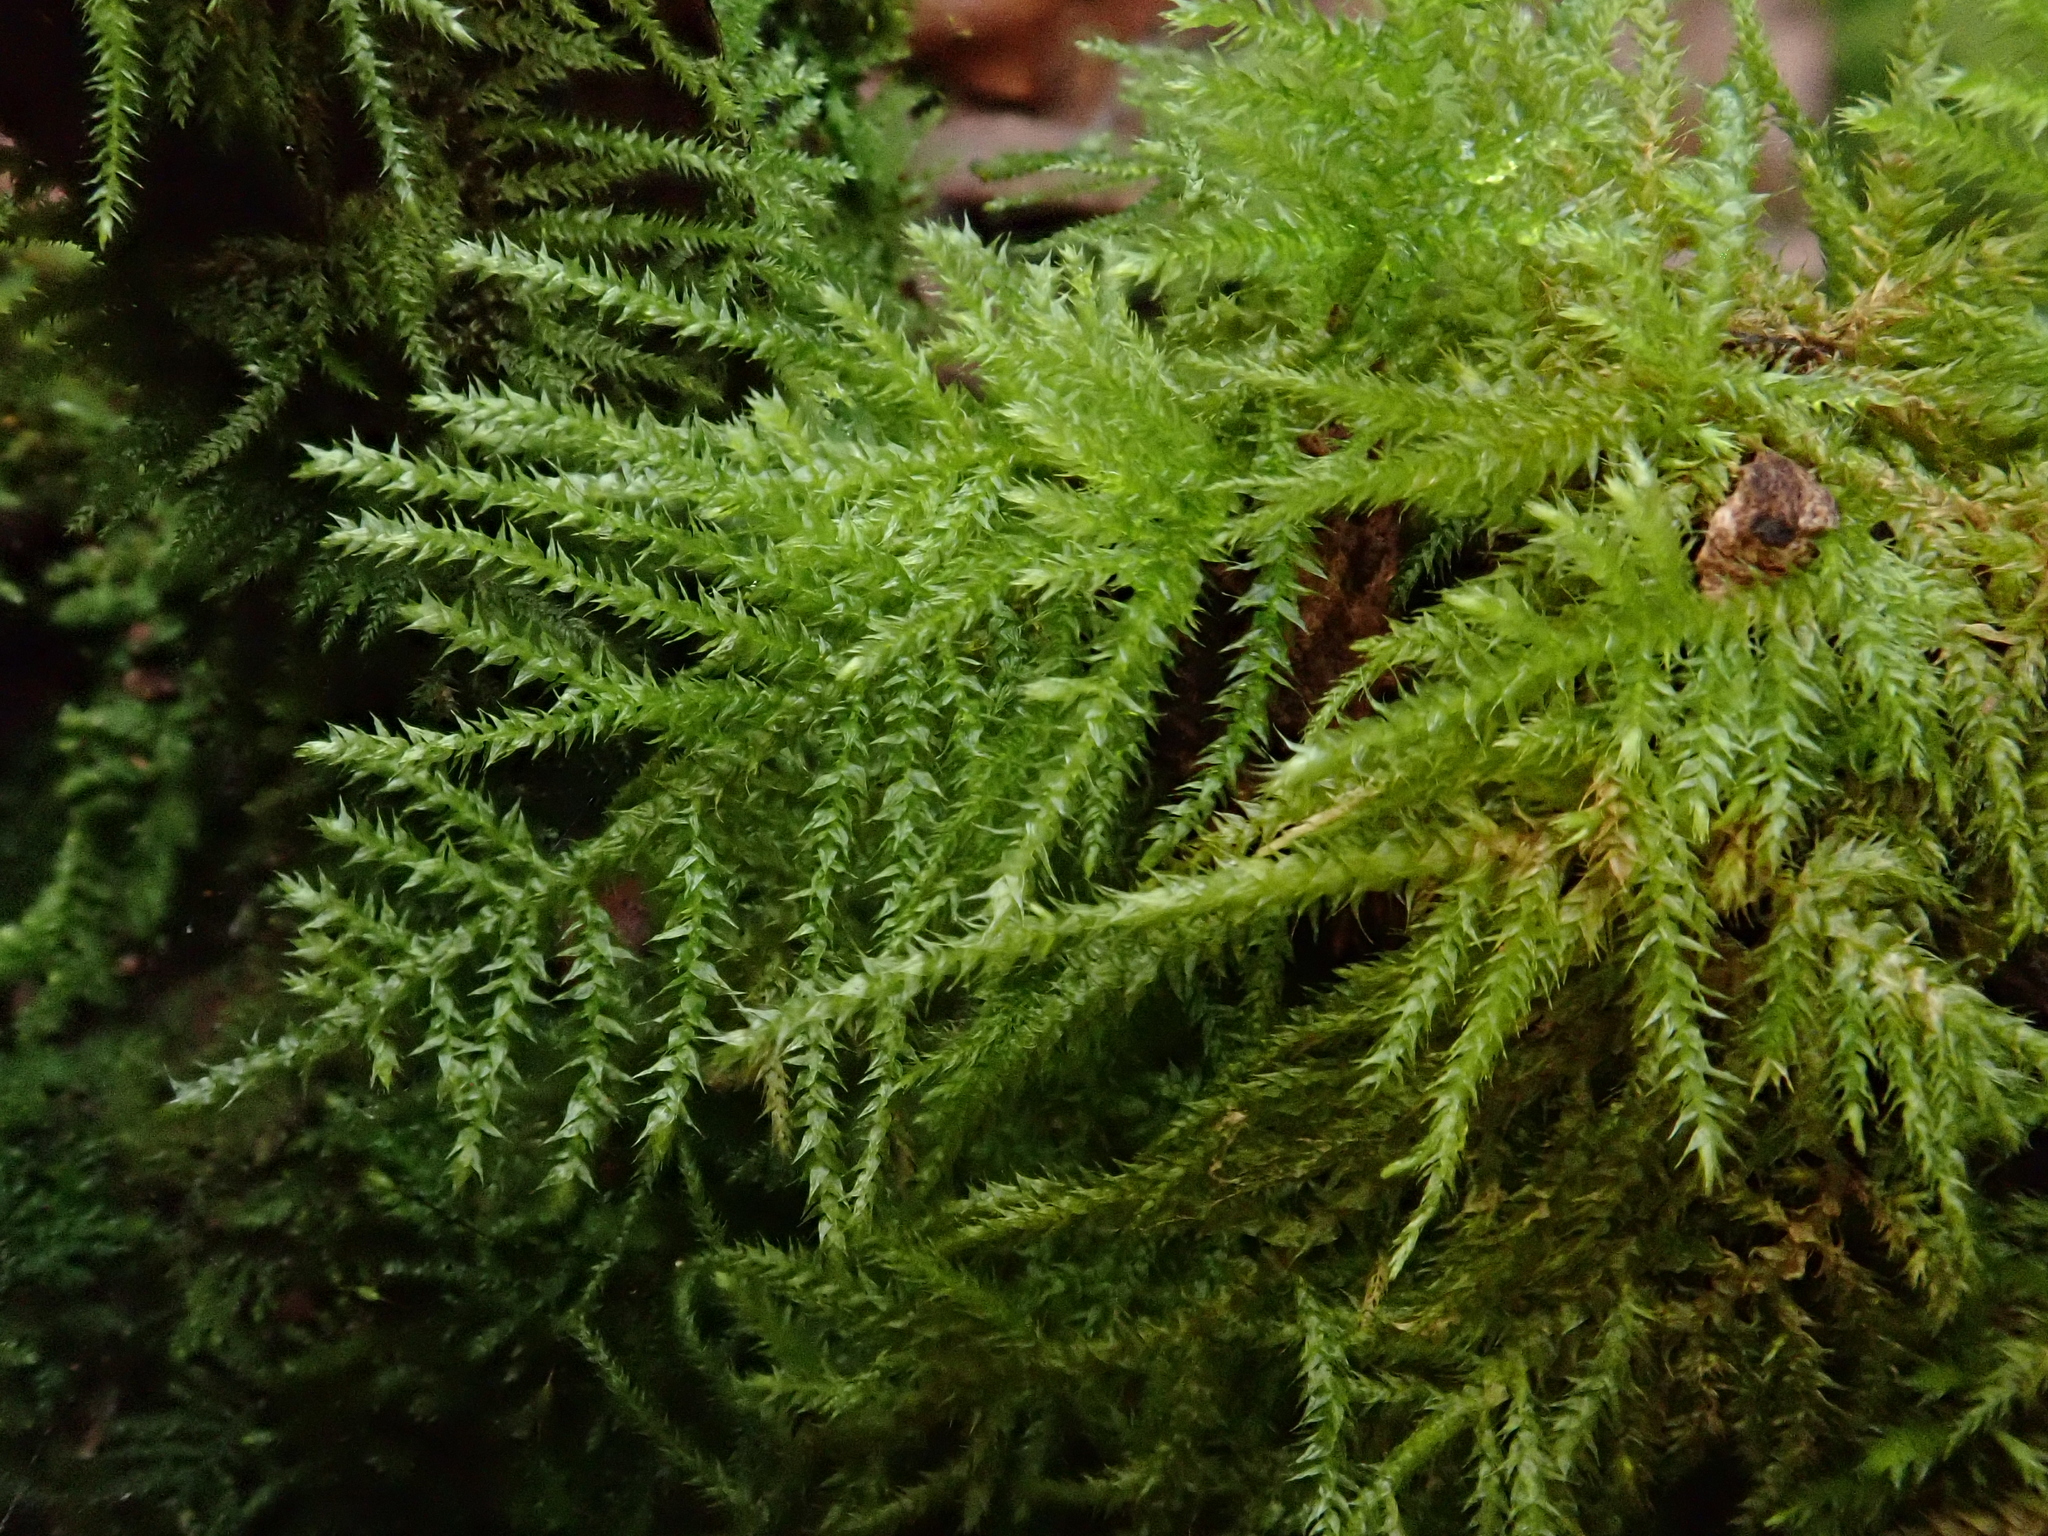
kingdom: Plantae
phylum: Bryophyta
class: Bryopsida
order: Hypnales
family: Brachytheciaceae
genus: Kindbergia
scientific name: Kindbergia praelonga
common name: Slender beaked moss
